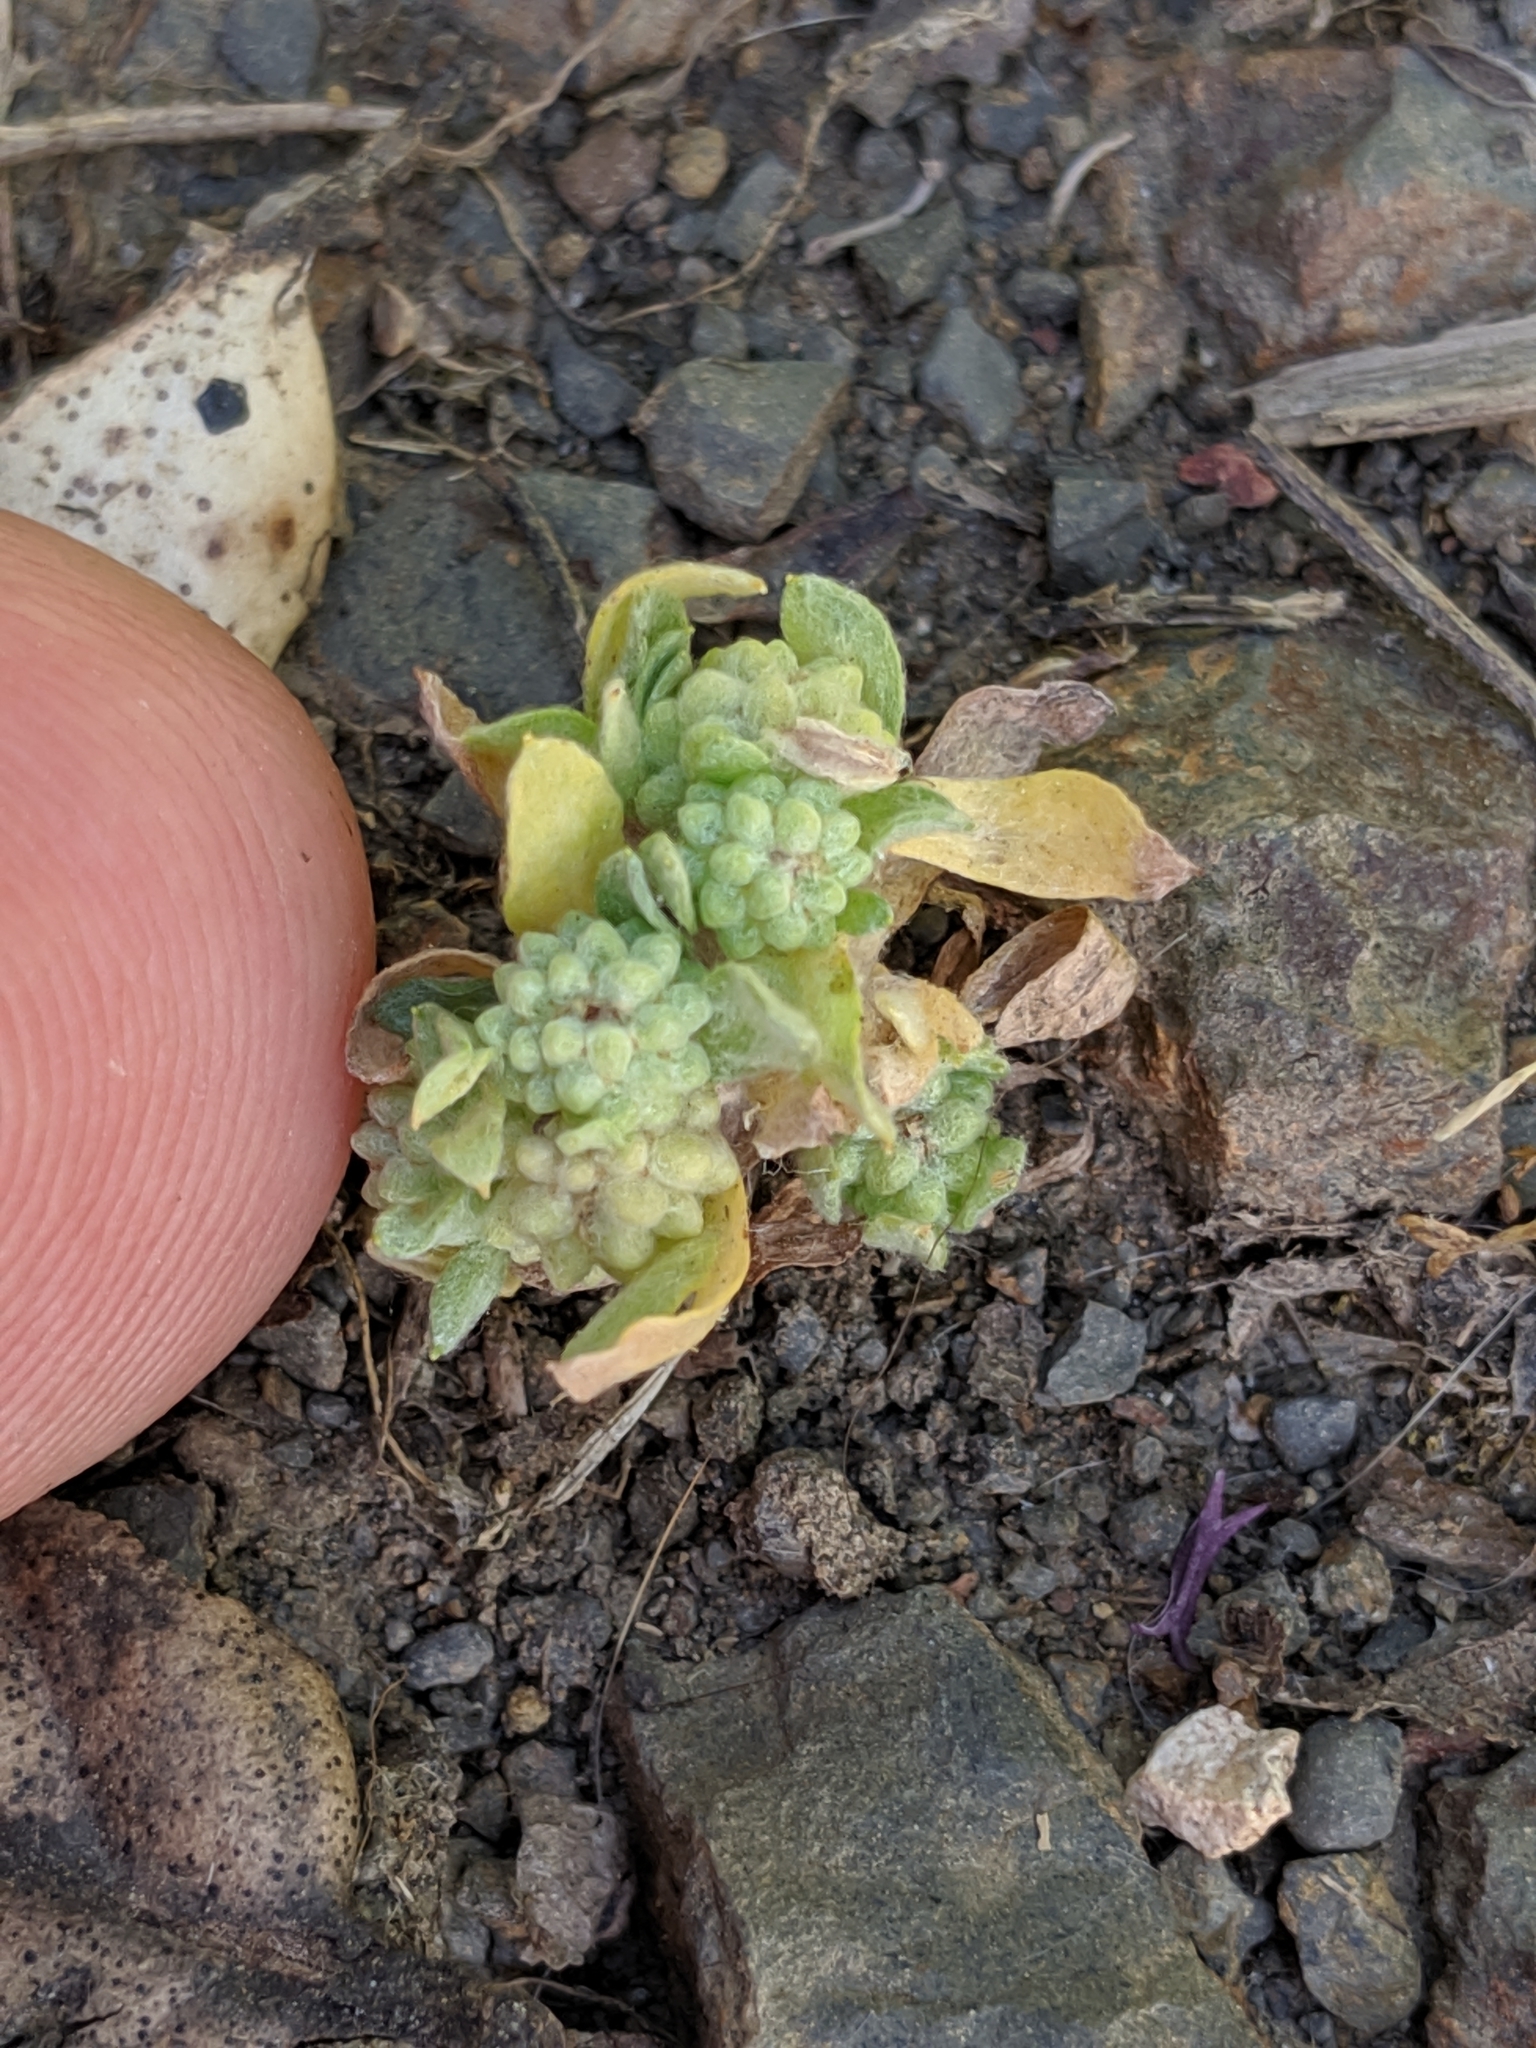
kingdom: Plantae
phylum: Tracheophyta
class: Magnoliopsida
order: Asterales
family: Asteraceae
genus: Psilocarphus
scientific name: Psilocarphus tenellus
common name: Slender woolly-marbles
